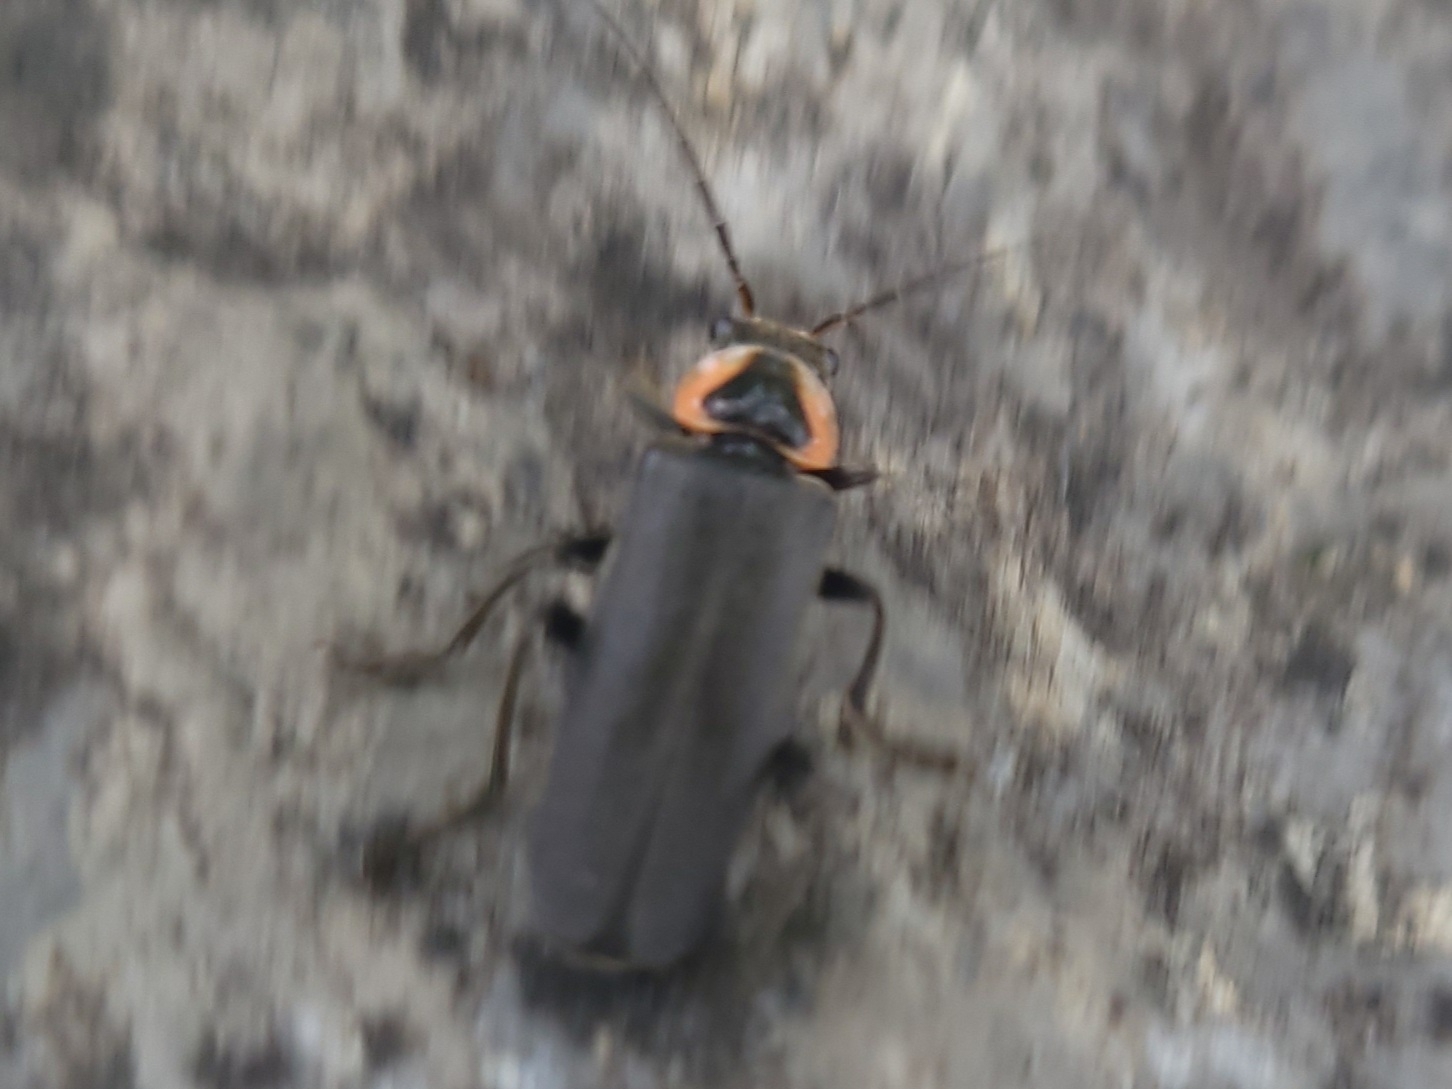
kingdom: Animalia
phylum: Arthropoda
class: Insecta
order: Coleoptera
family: Cantharidae
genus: Rhaxonycha
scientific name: Rhaxonycha carolina
